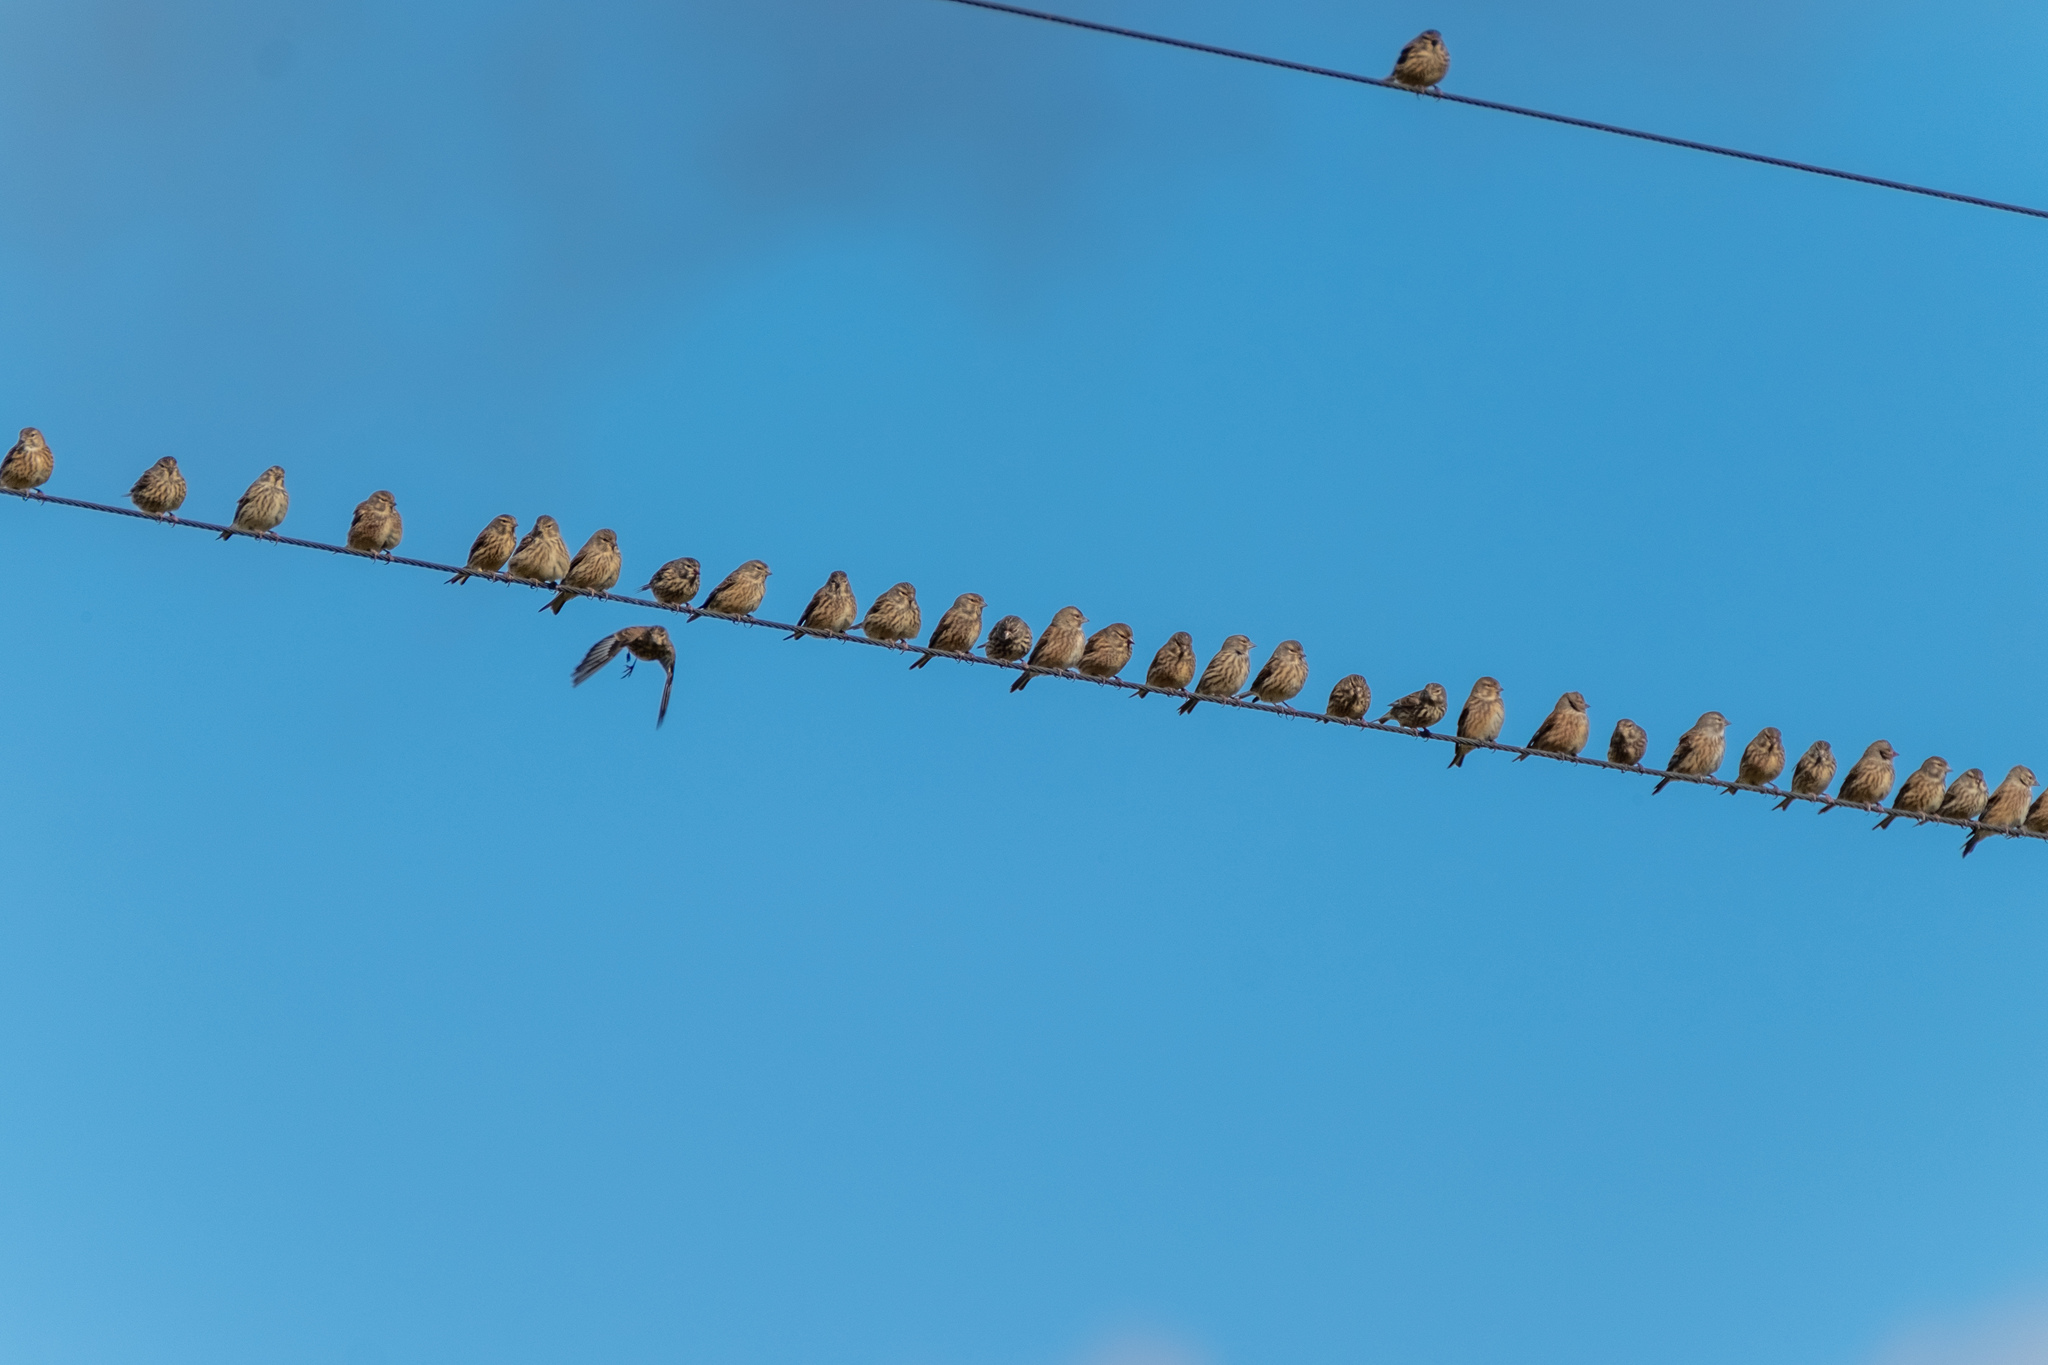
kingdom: Animalia
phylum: Chordata
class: Aves
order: Passeriformes
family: Fringillidae
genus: Linaria
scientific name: Linaria cannabina
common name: Common linnet
